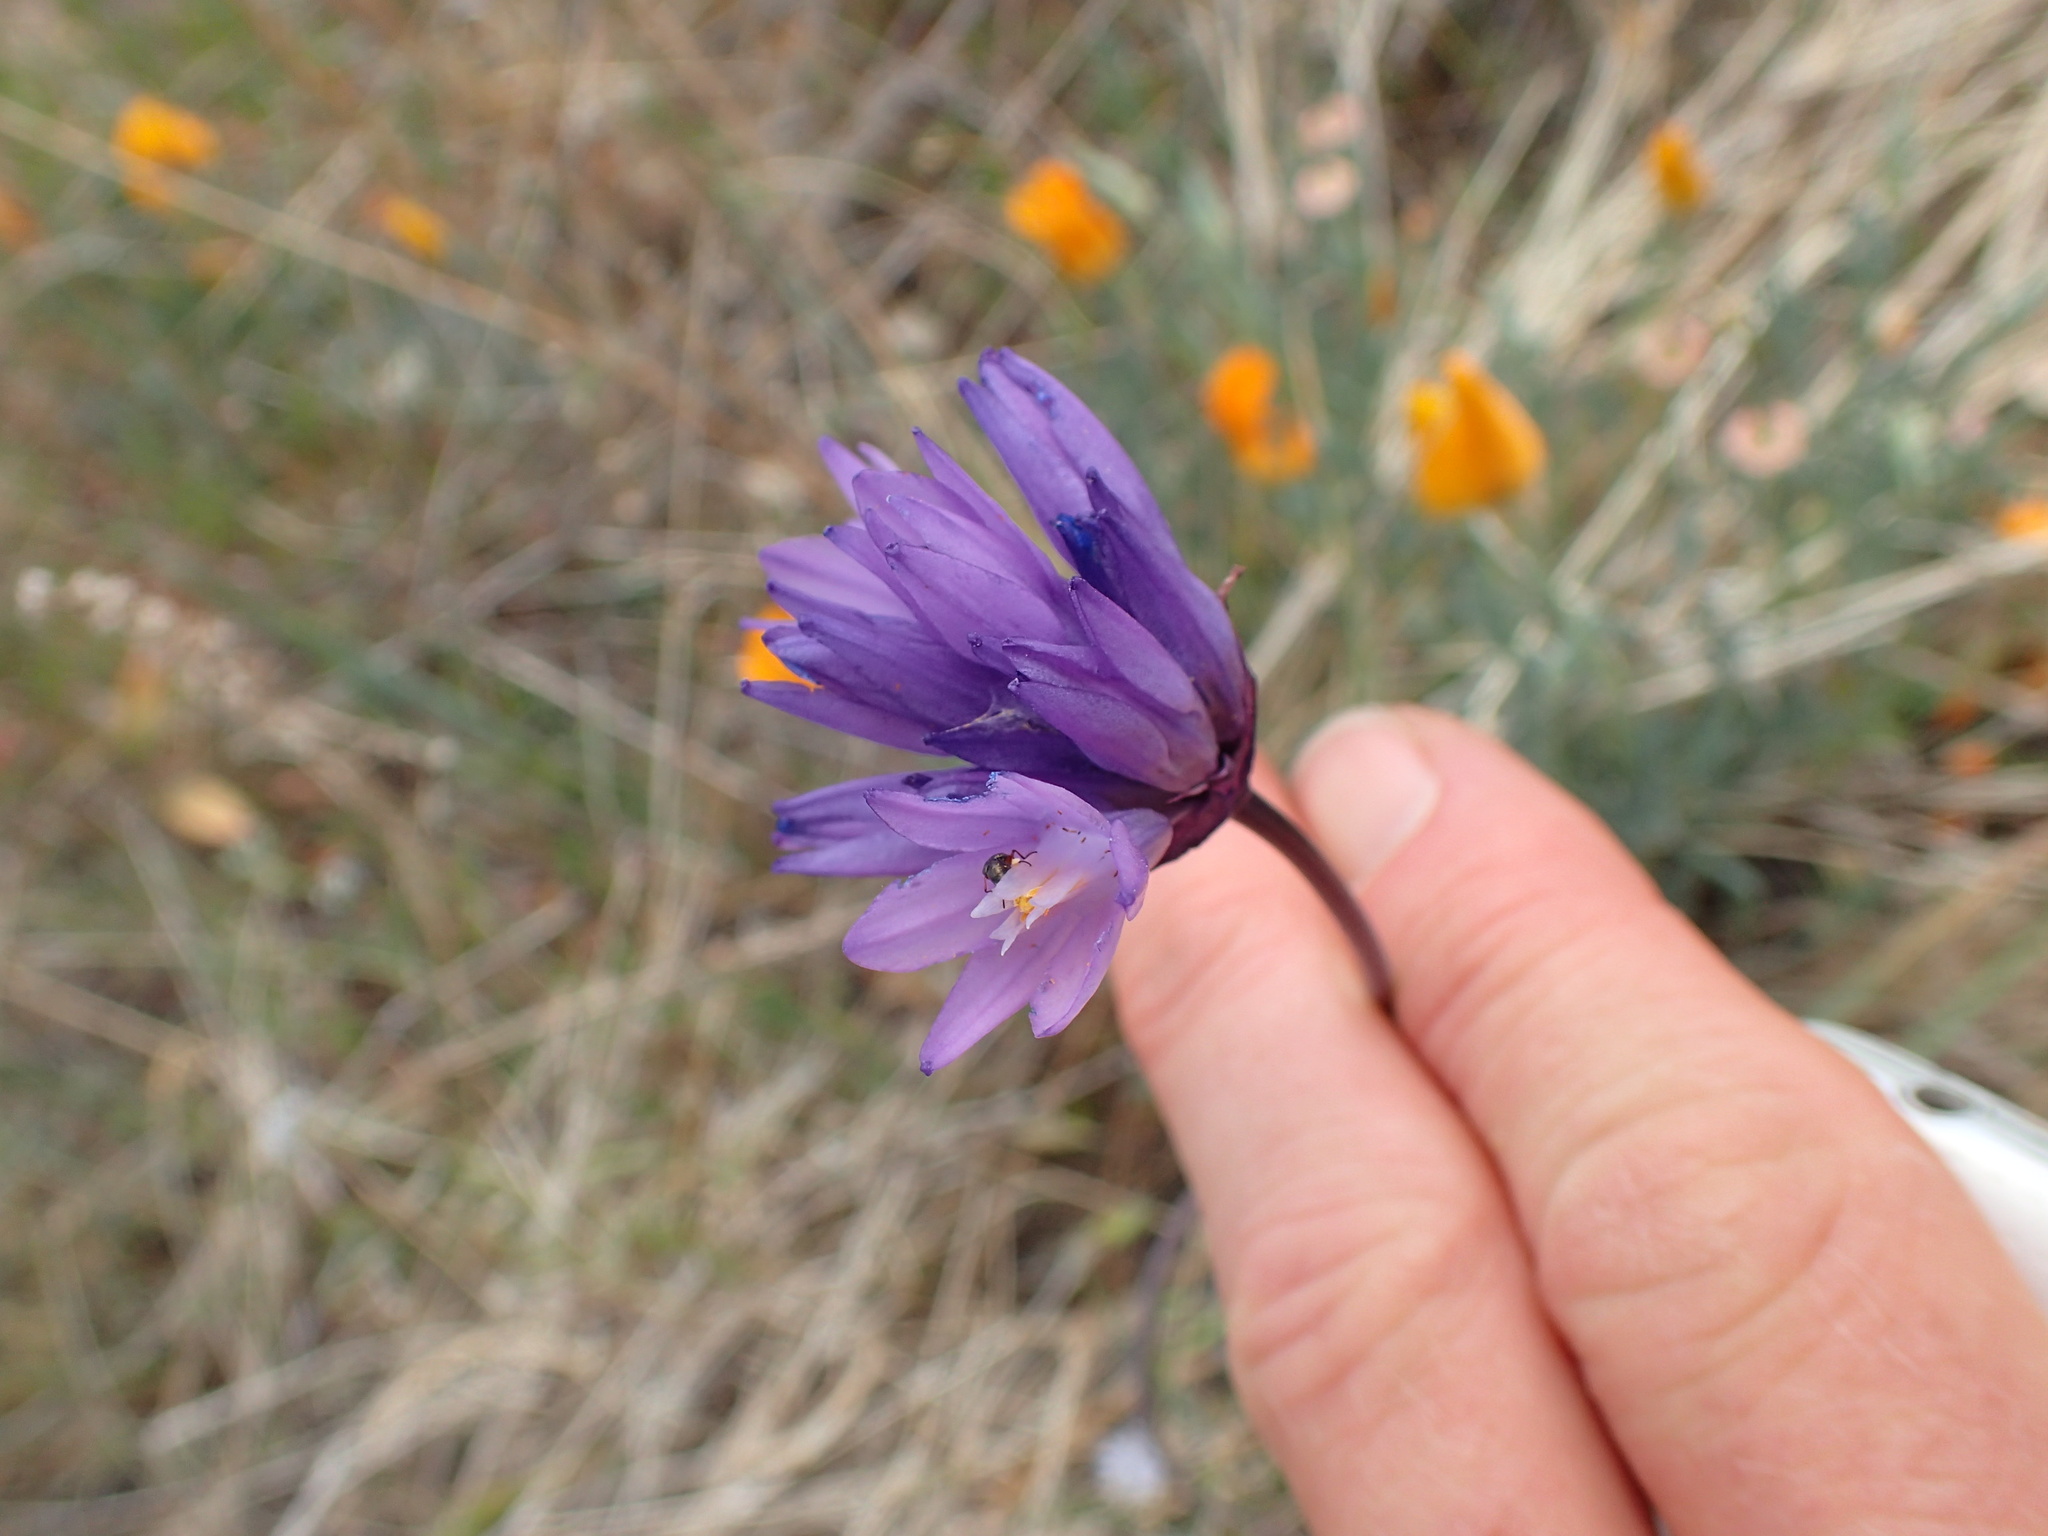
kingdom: Plantae
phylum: Tracheophyta
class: Liliopsida
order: Asparagales
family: Asparagaceae
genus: Dipterostemon
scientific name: Dipterostemon capitatus
